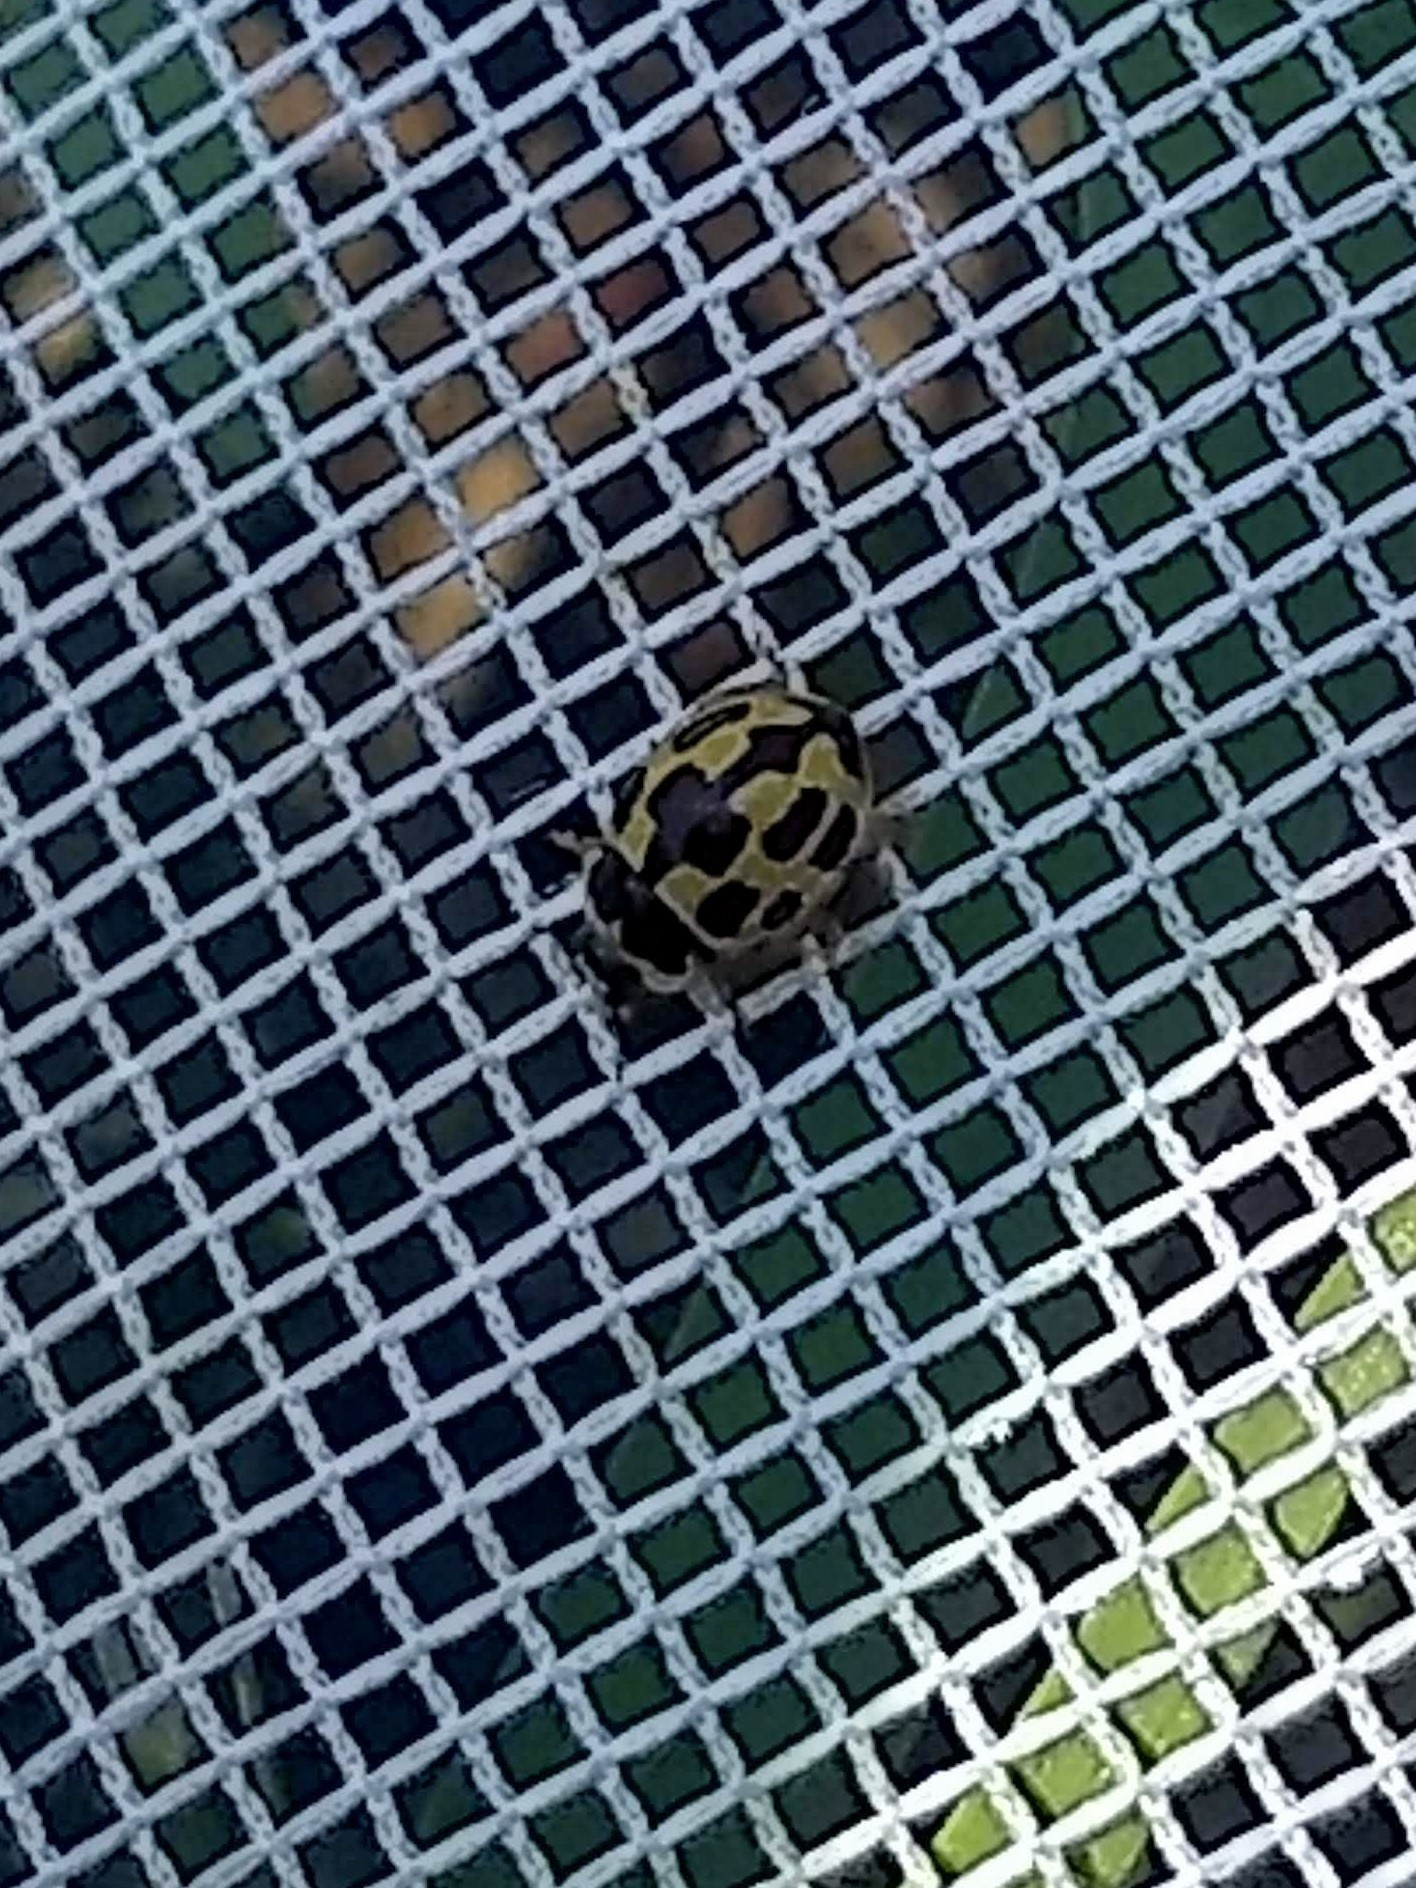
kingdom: Animalia
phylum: Arthropoda
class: Insecta
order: Coleoptera
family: Coccinellidae
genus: Propylaea
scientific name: Propylaea quatuordecimpunctata
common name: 14-spotted ladybird beetle
